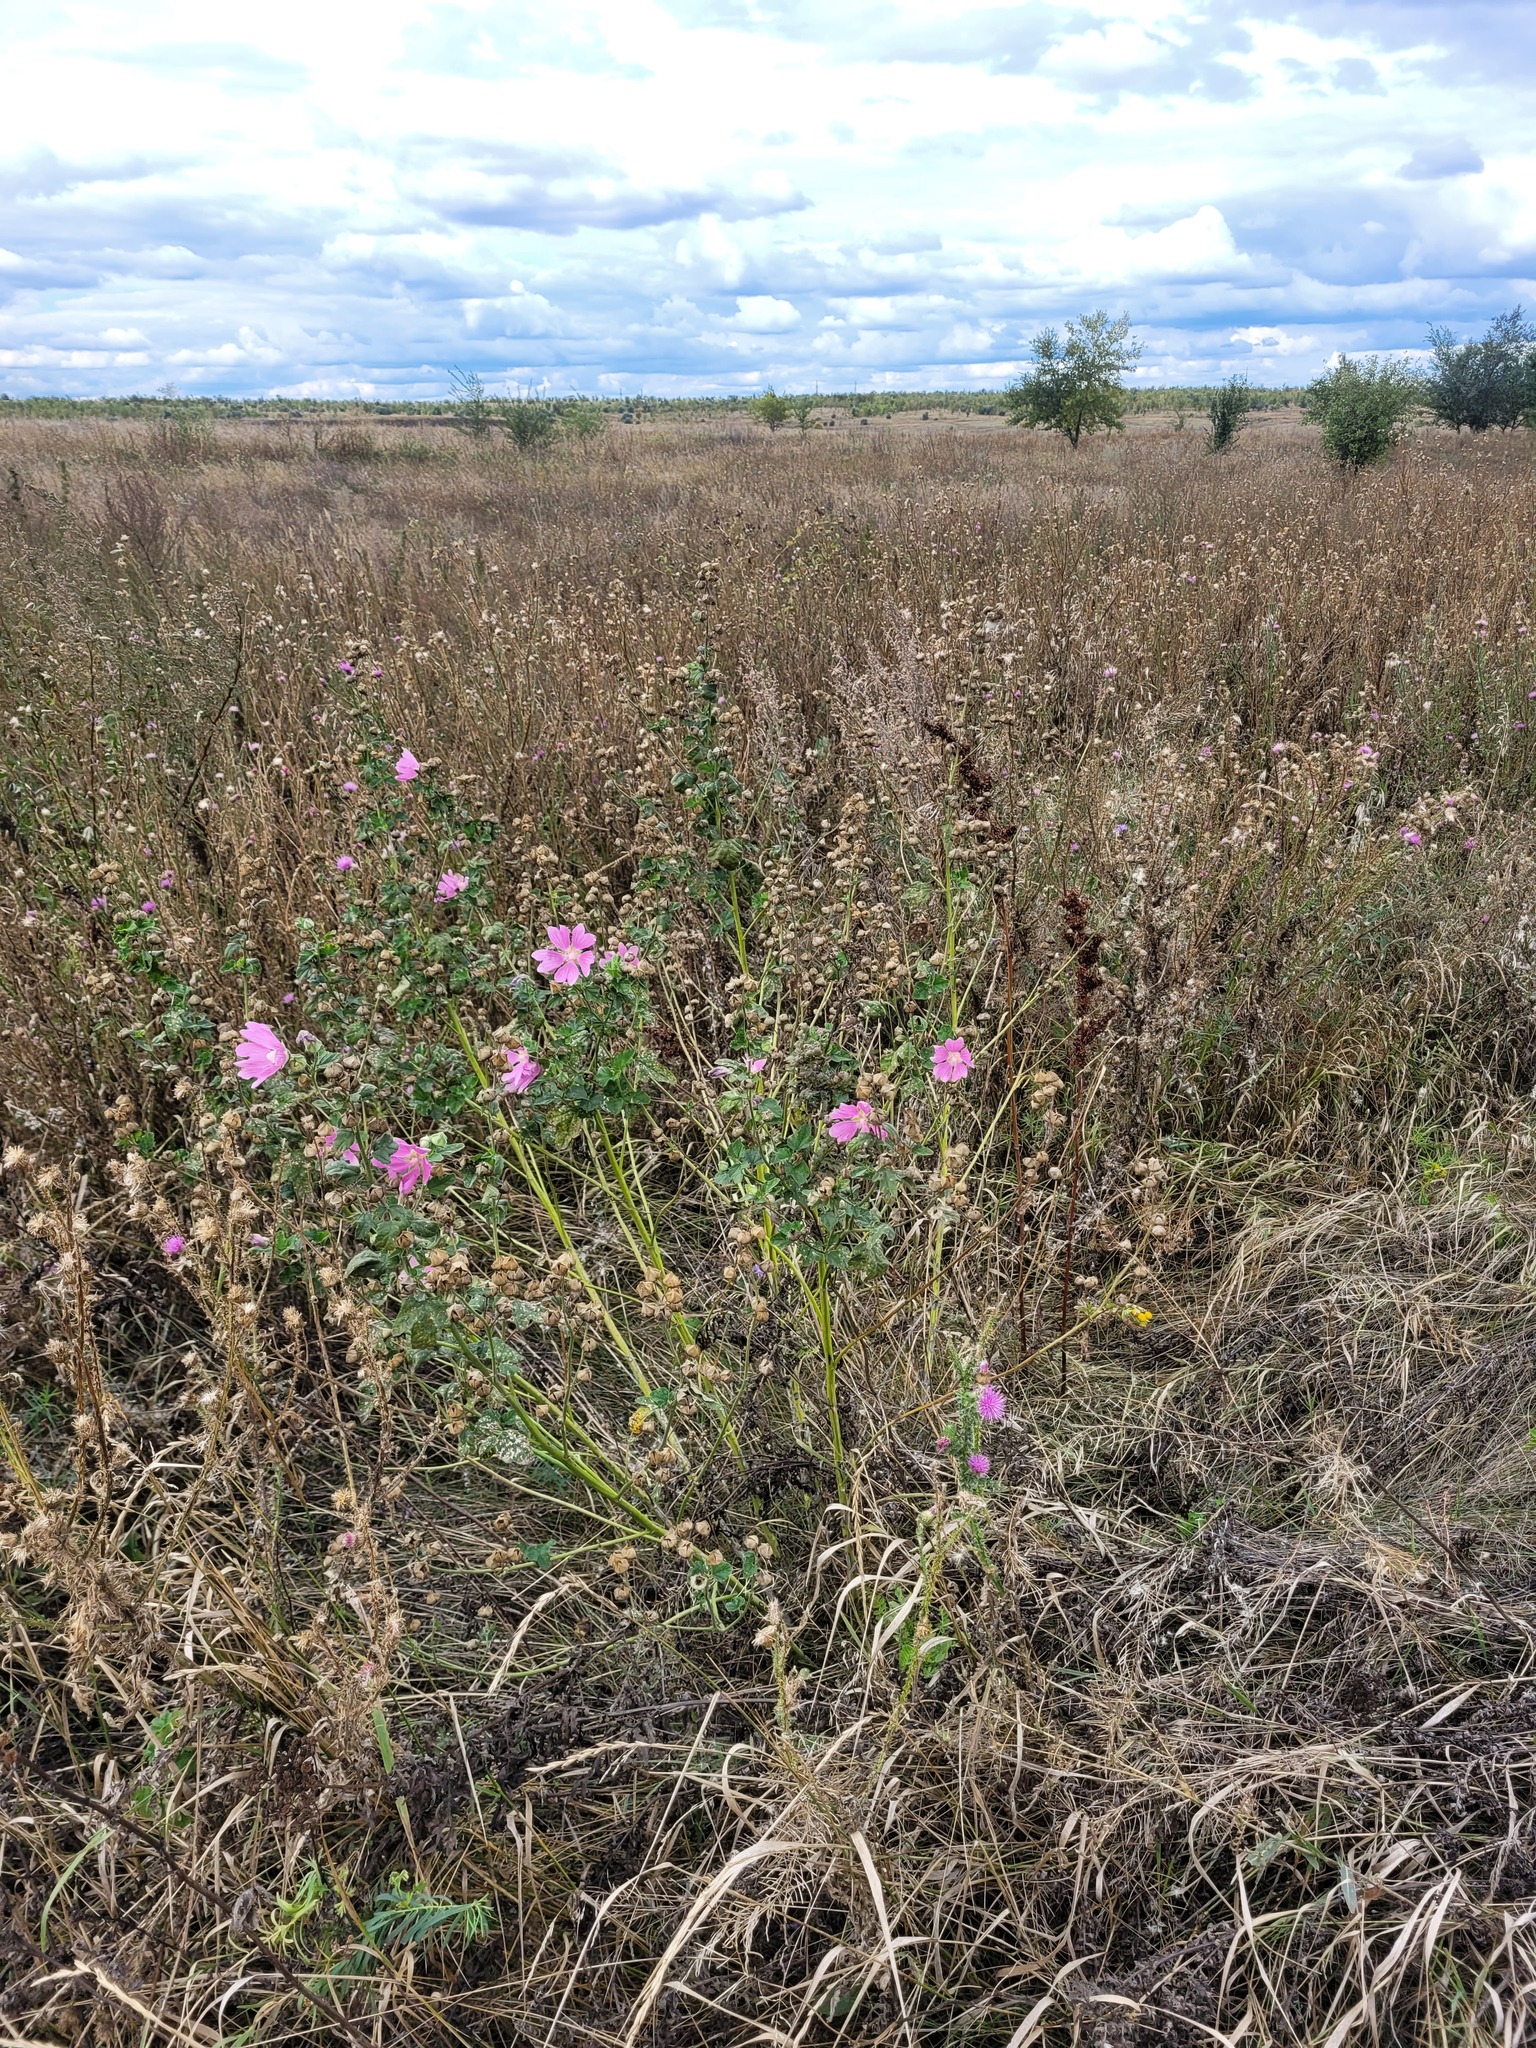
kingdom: Plantae
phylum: Tracheophyta
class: Magnoliopsida
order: Malvales
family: Malvaceae
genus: Malva
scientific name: Malva thuringiaca
